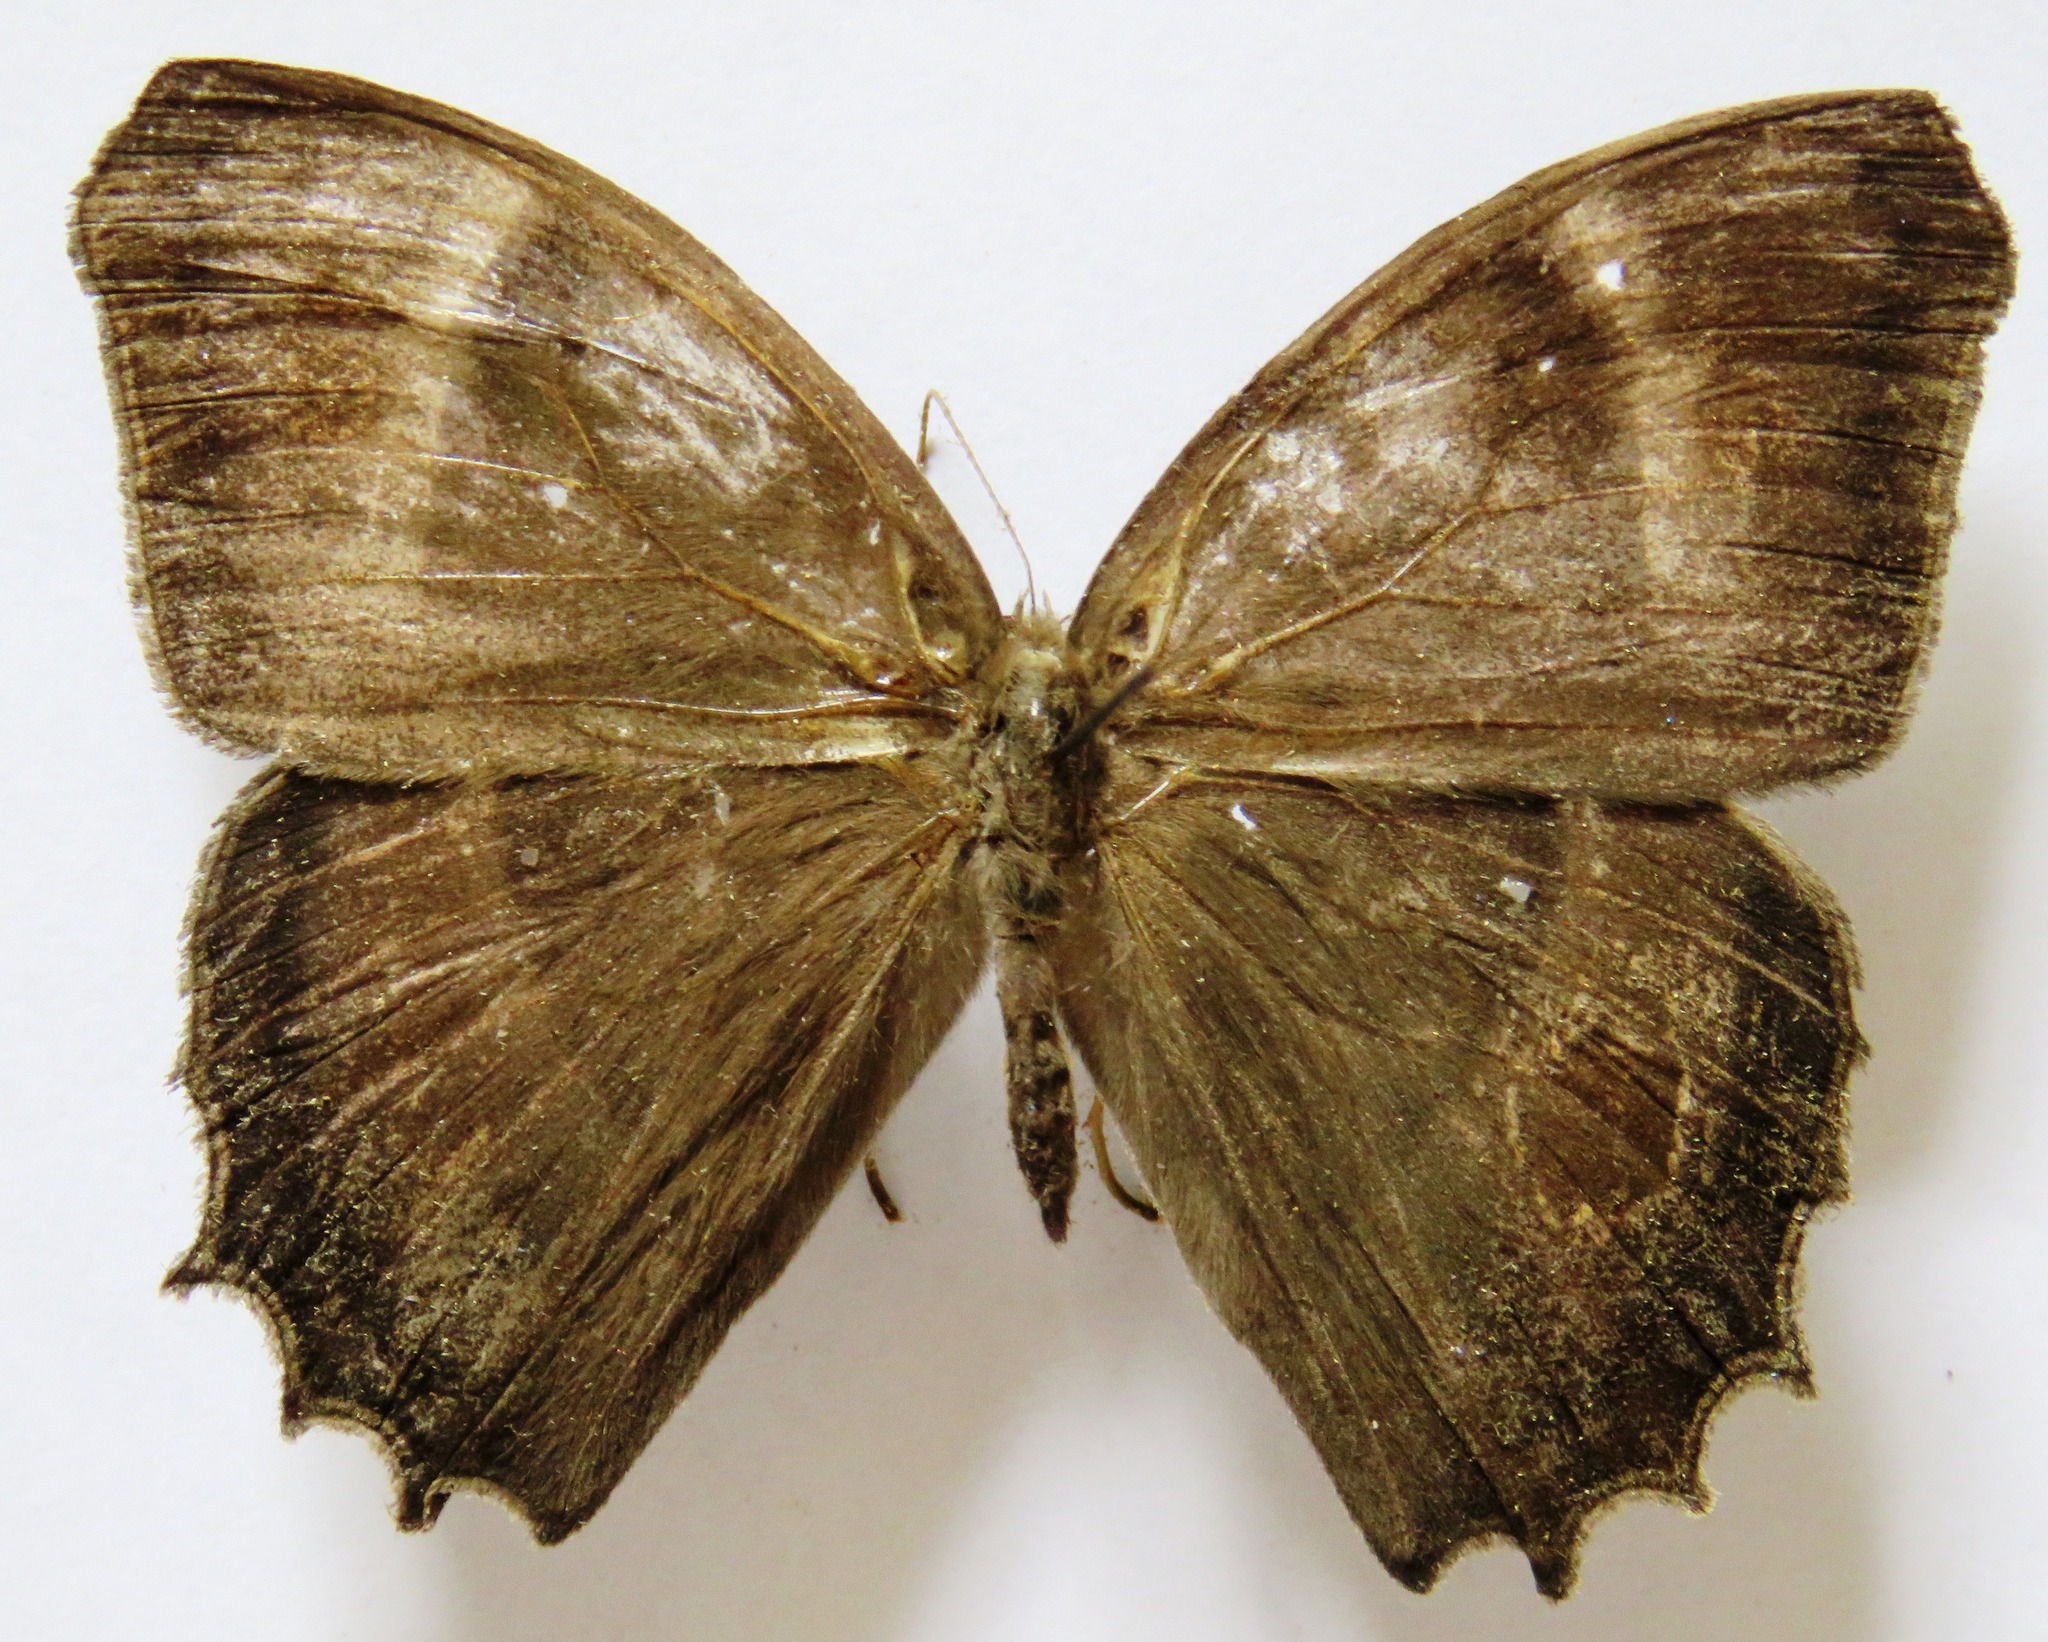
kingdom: Animalia
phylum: Arthropoda
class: Insecta
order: Lepidoptera
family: Nymphalidae
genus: Taygetis
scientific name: Taygetis inconspicua
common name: Inconspicuous satyr
